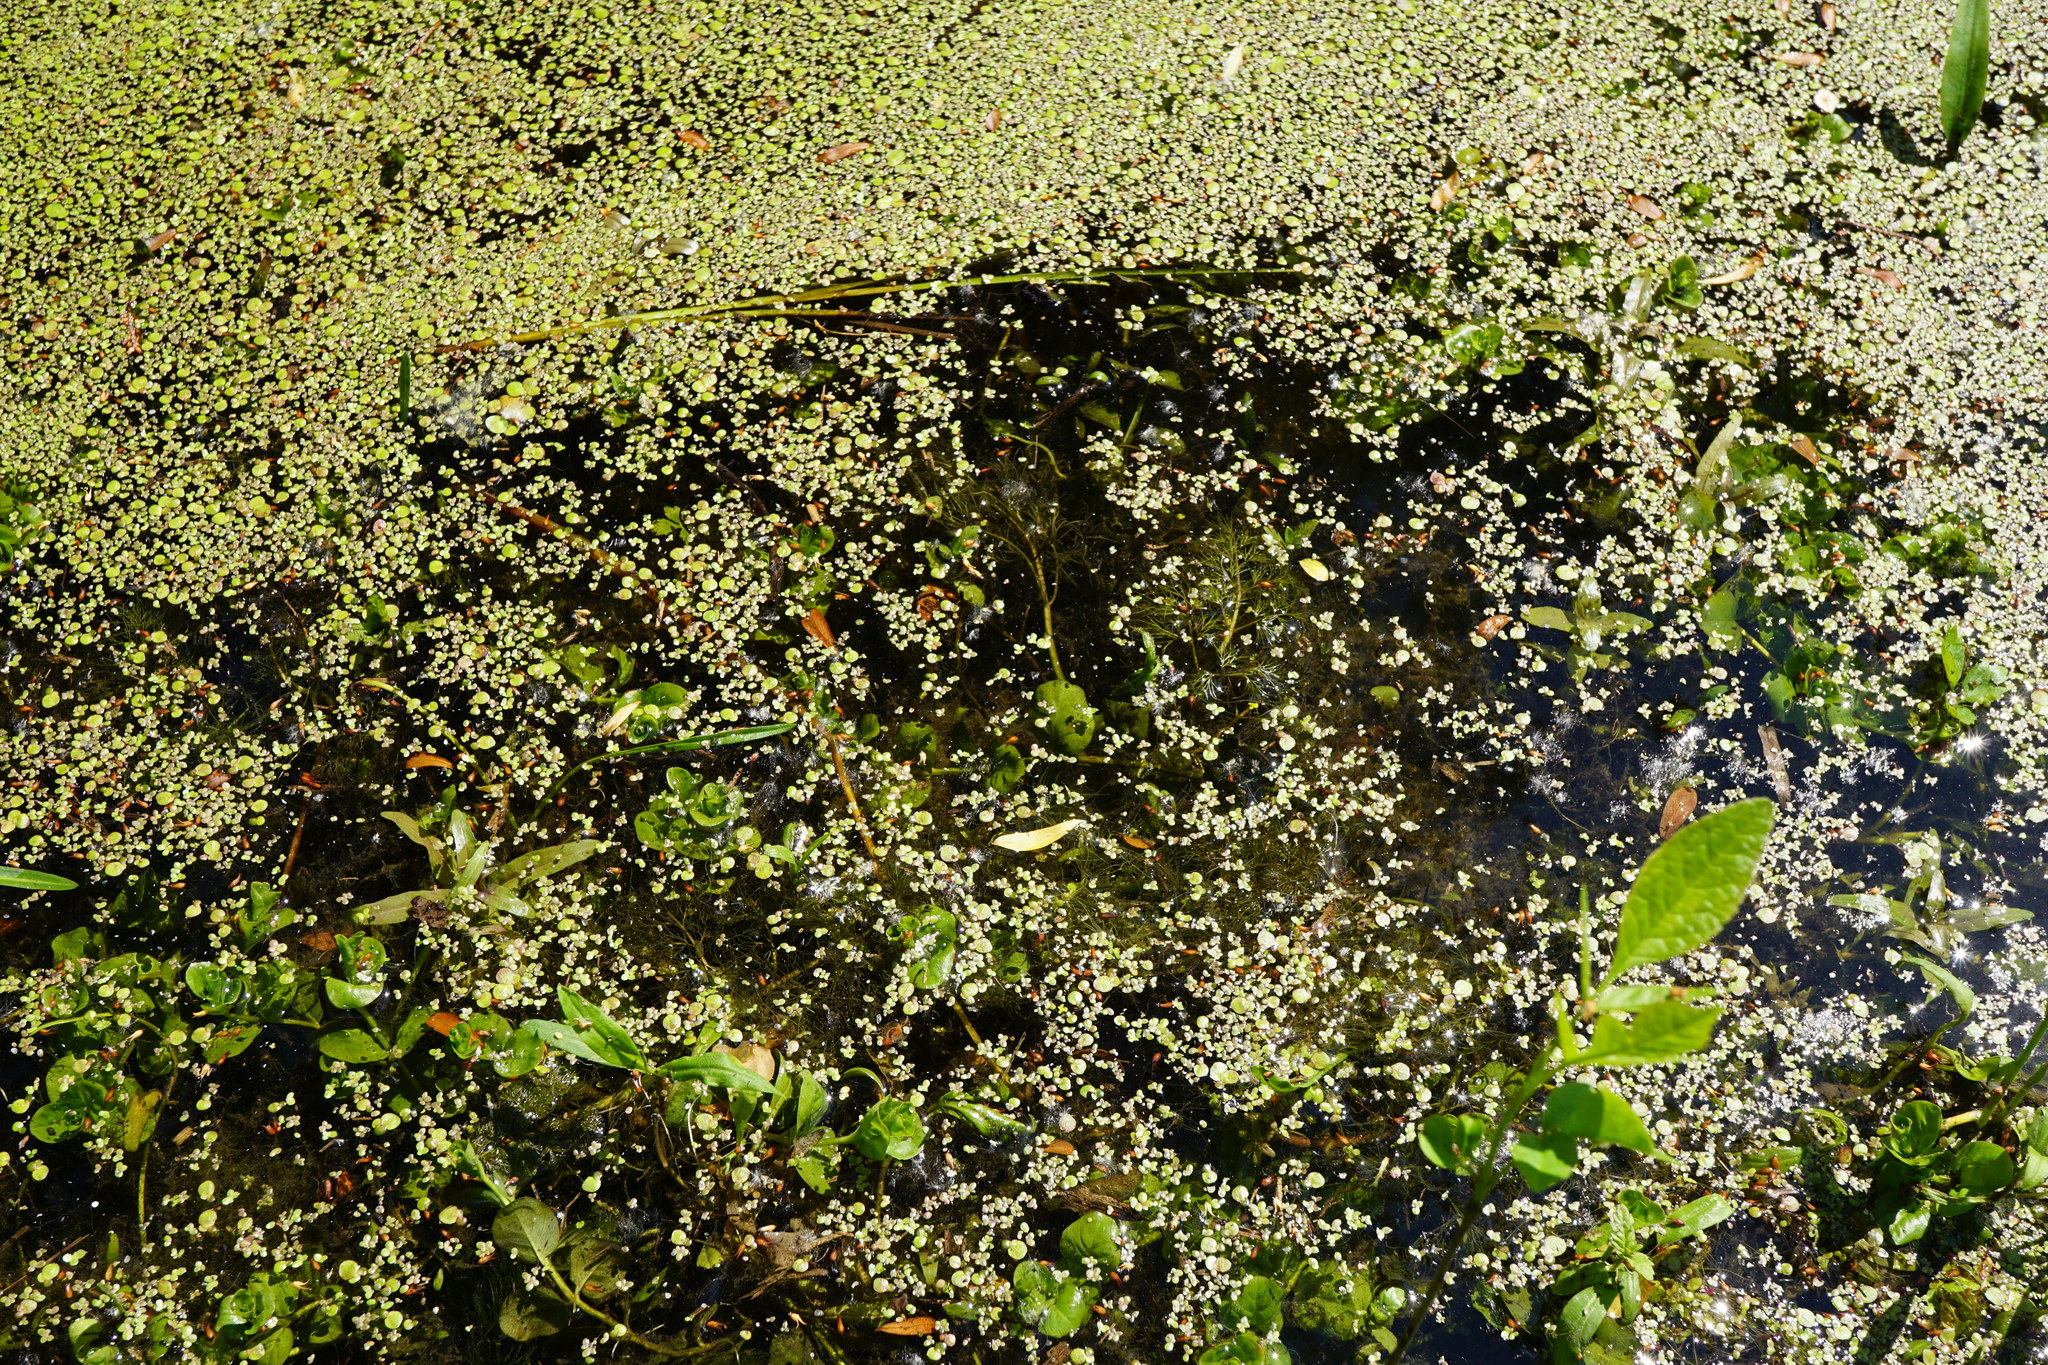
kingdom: Plantae
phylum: Tracheophyta
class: Magnoliopsida
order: Ranunculales
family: Ranunculaceae
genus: Ranunculus
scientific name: Ranunculus
